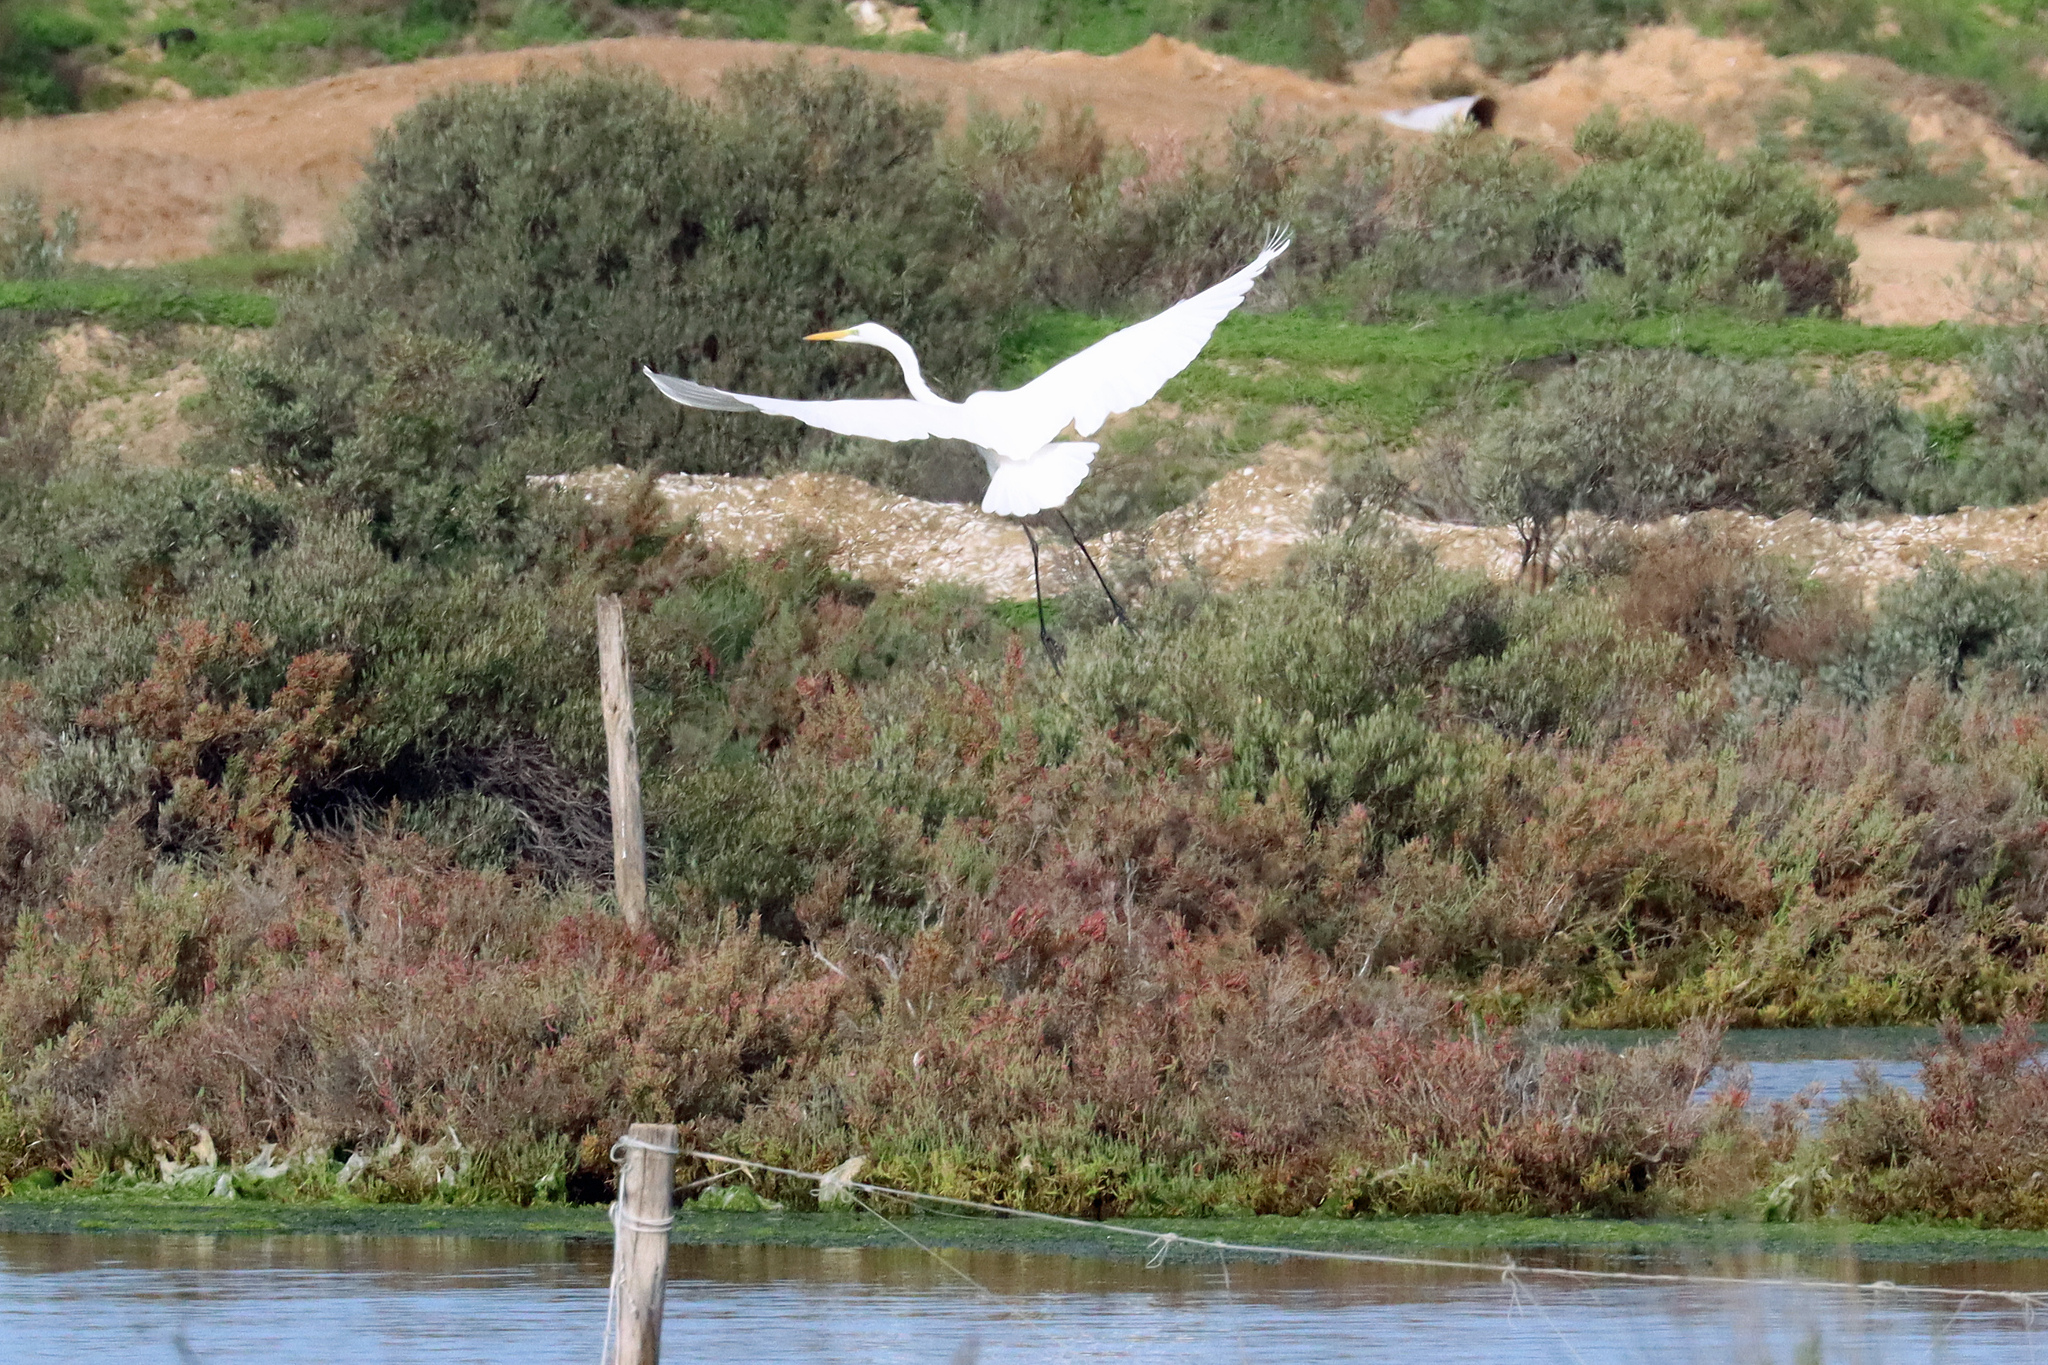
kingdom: Animalia
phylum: Chordata
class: Aves
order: Pelecaniformes
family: Ardeidae
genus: Ardea
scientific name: Ardea alba
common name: Great egret
